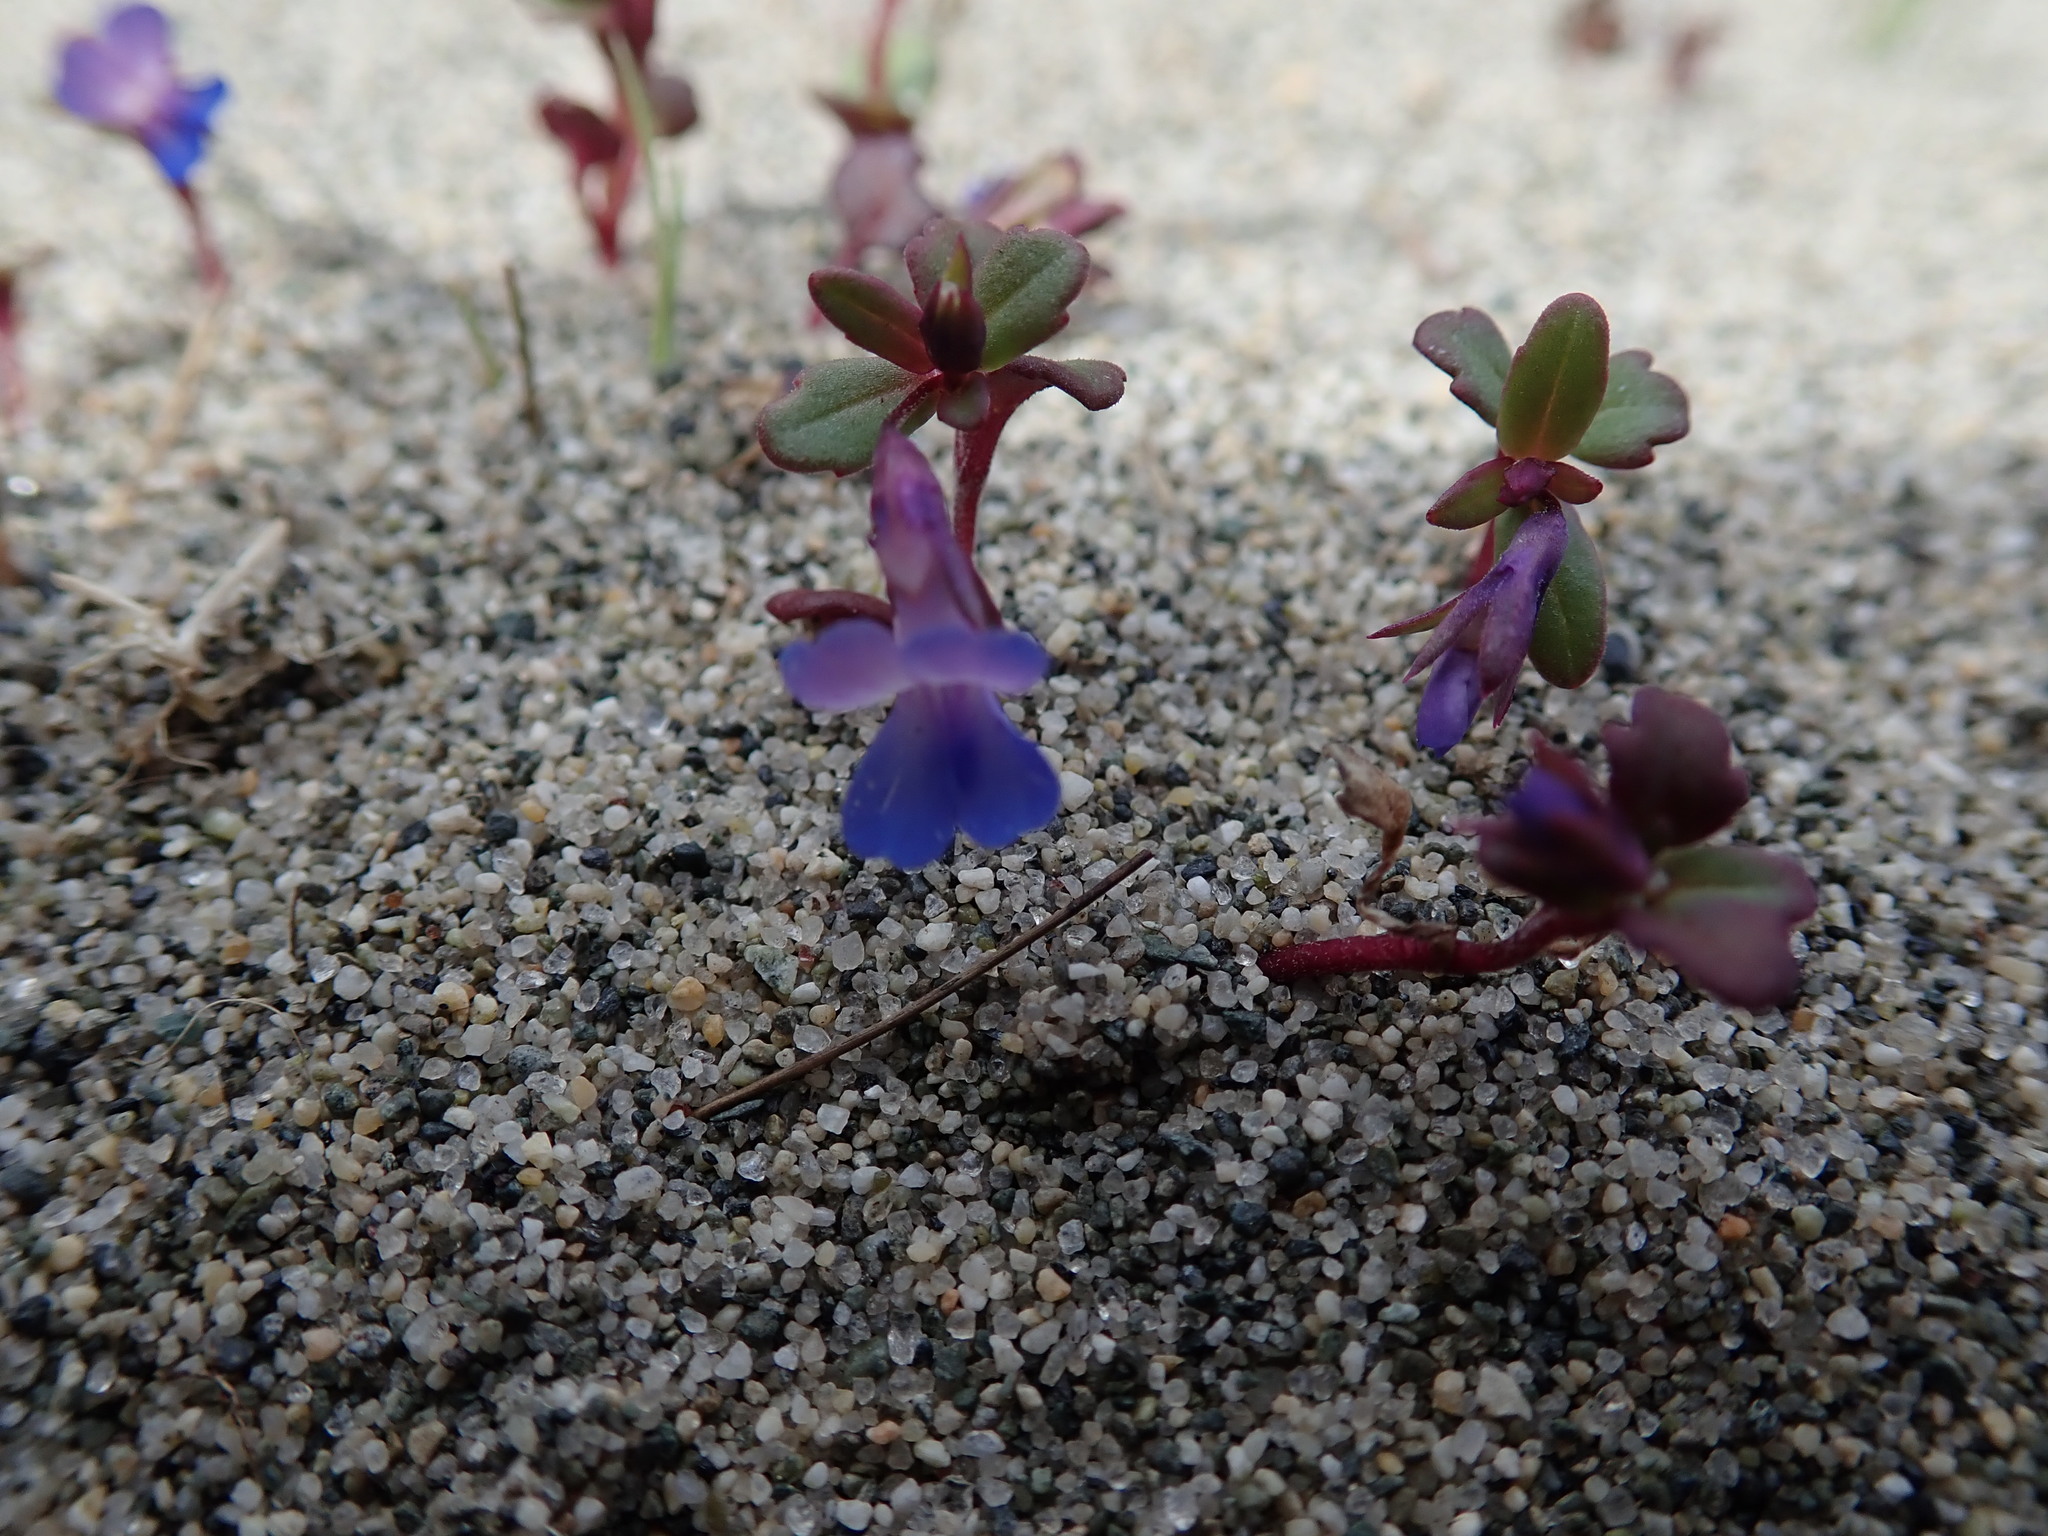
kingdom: Plantae
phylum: Tracheophyta
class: Magnoliopsida
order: Lamiales
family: Plantaginaceae
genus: Collinsia
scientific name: Collinsia parviflora
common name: Blue-lips
